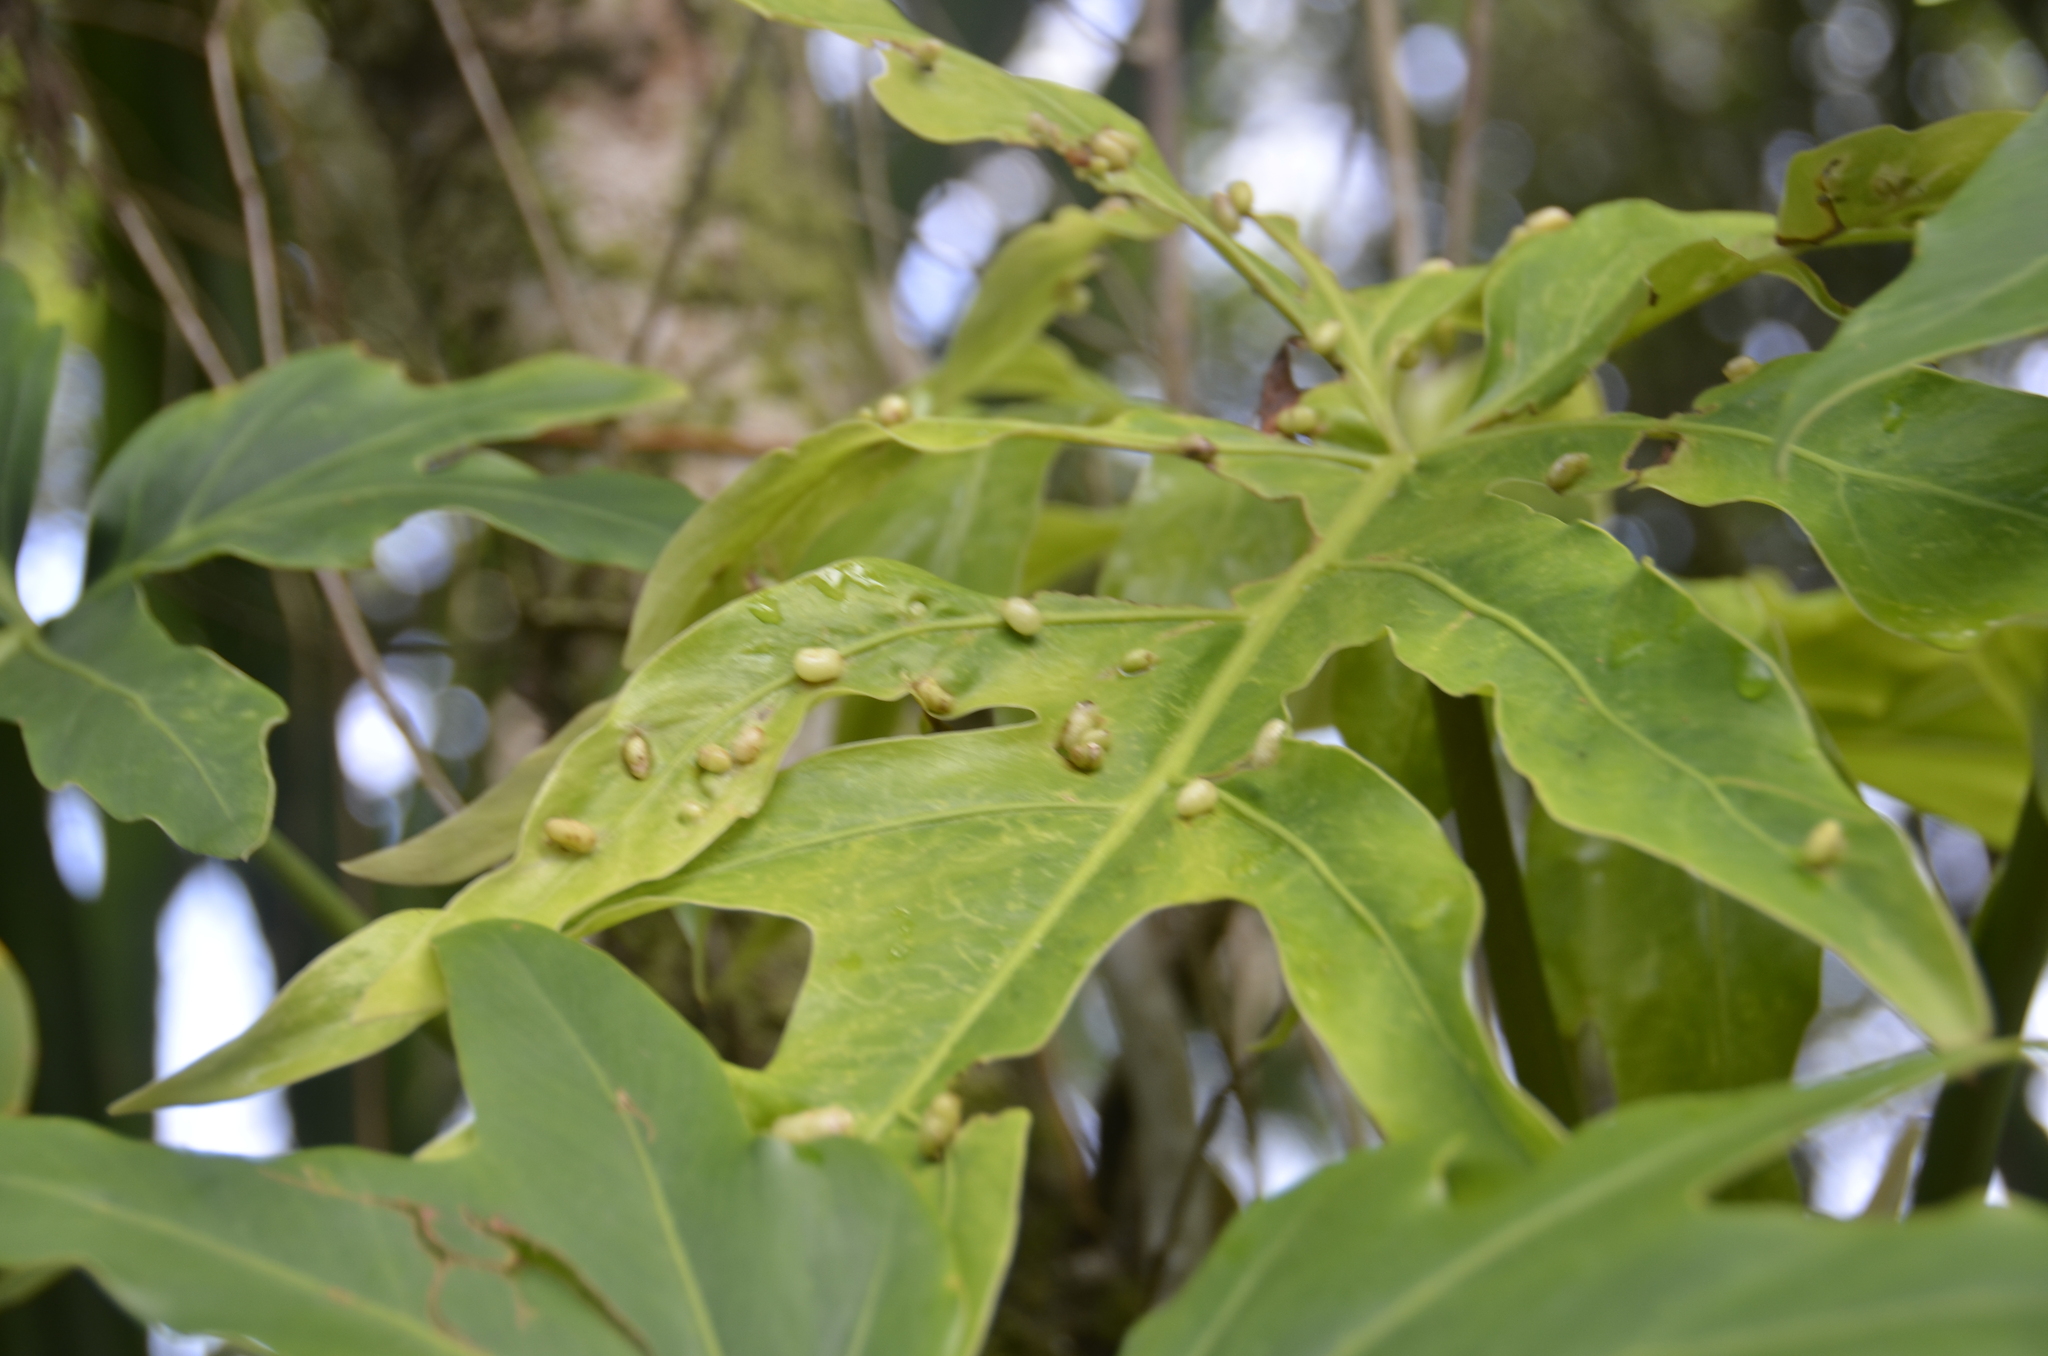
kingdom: Plantae
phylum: Tracheophyta
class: Liliopsida
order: Alismatales
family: Araceae
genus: Philodendron
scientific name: Philodendron radiatum
